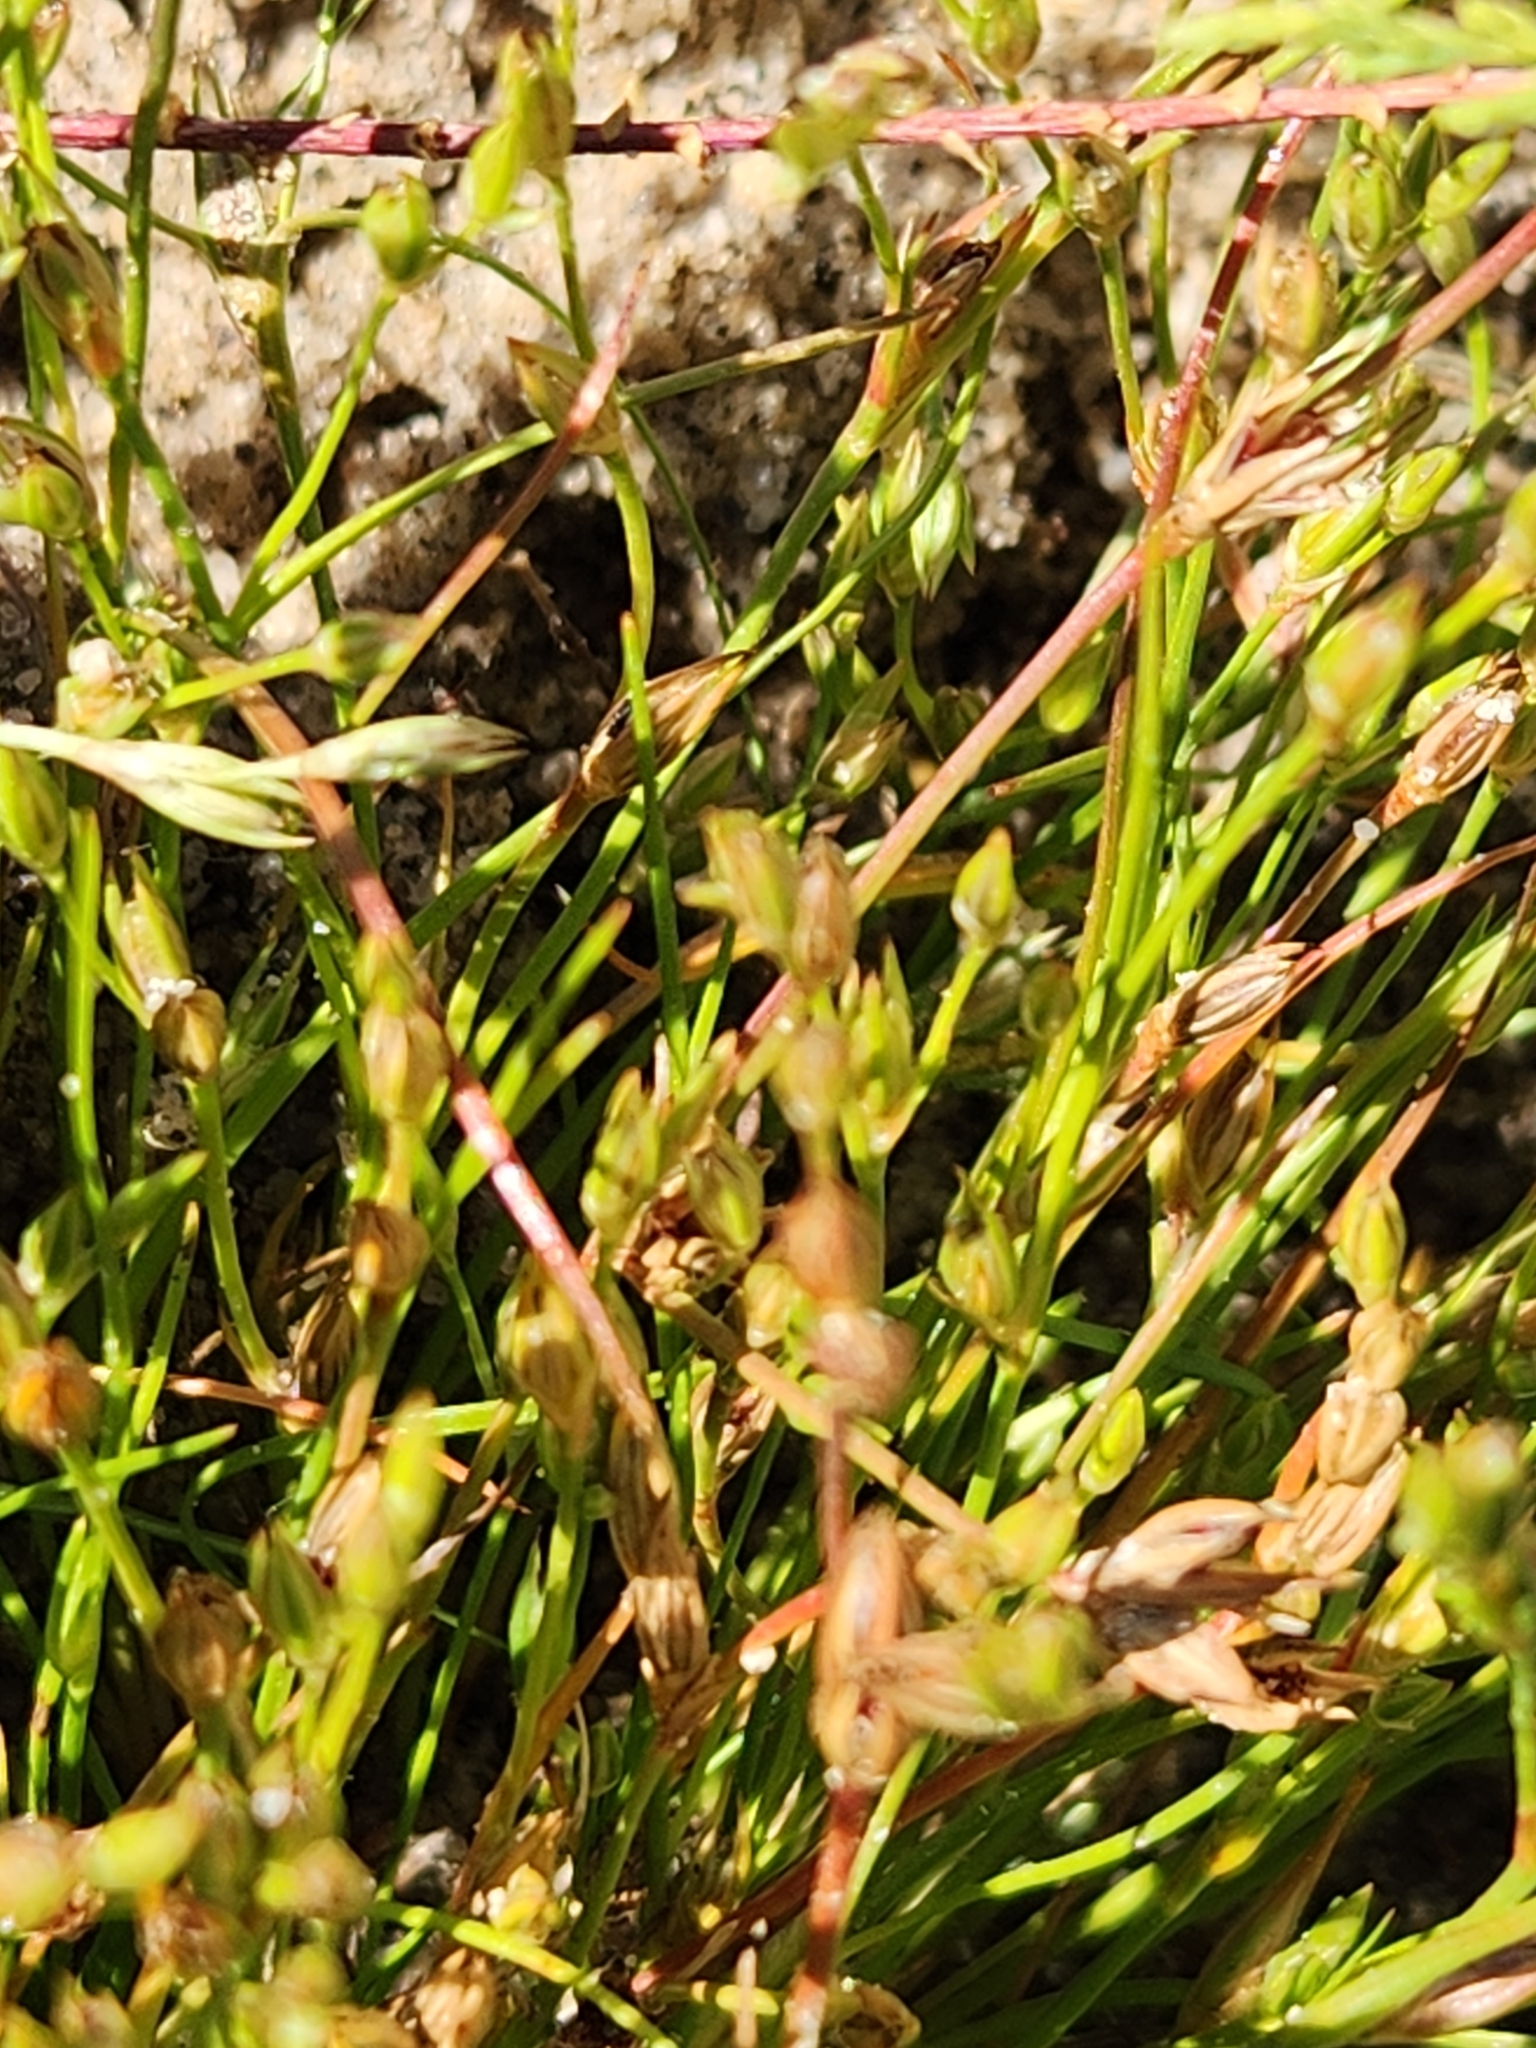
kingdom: Plantae
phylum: Tracheophyta
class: Liliopsida
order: Poales
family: Juncaceae
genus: Juncus
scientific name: Juncus bufonius
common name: Toad rush
